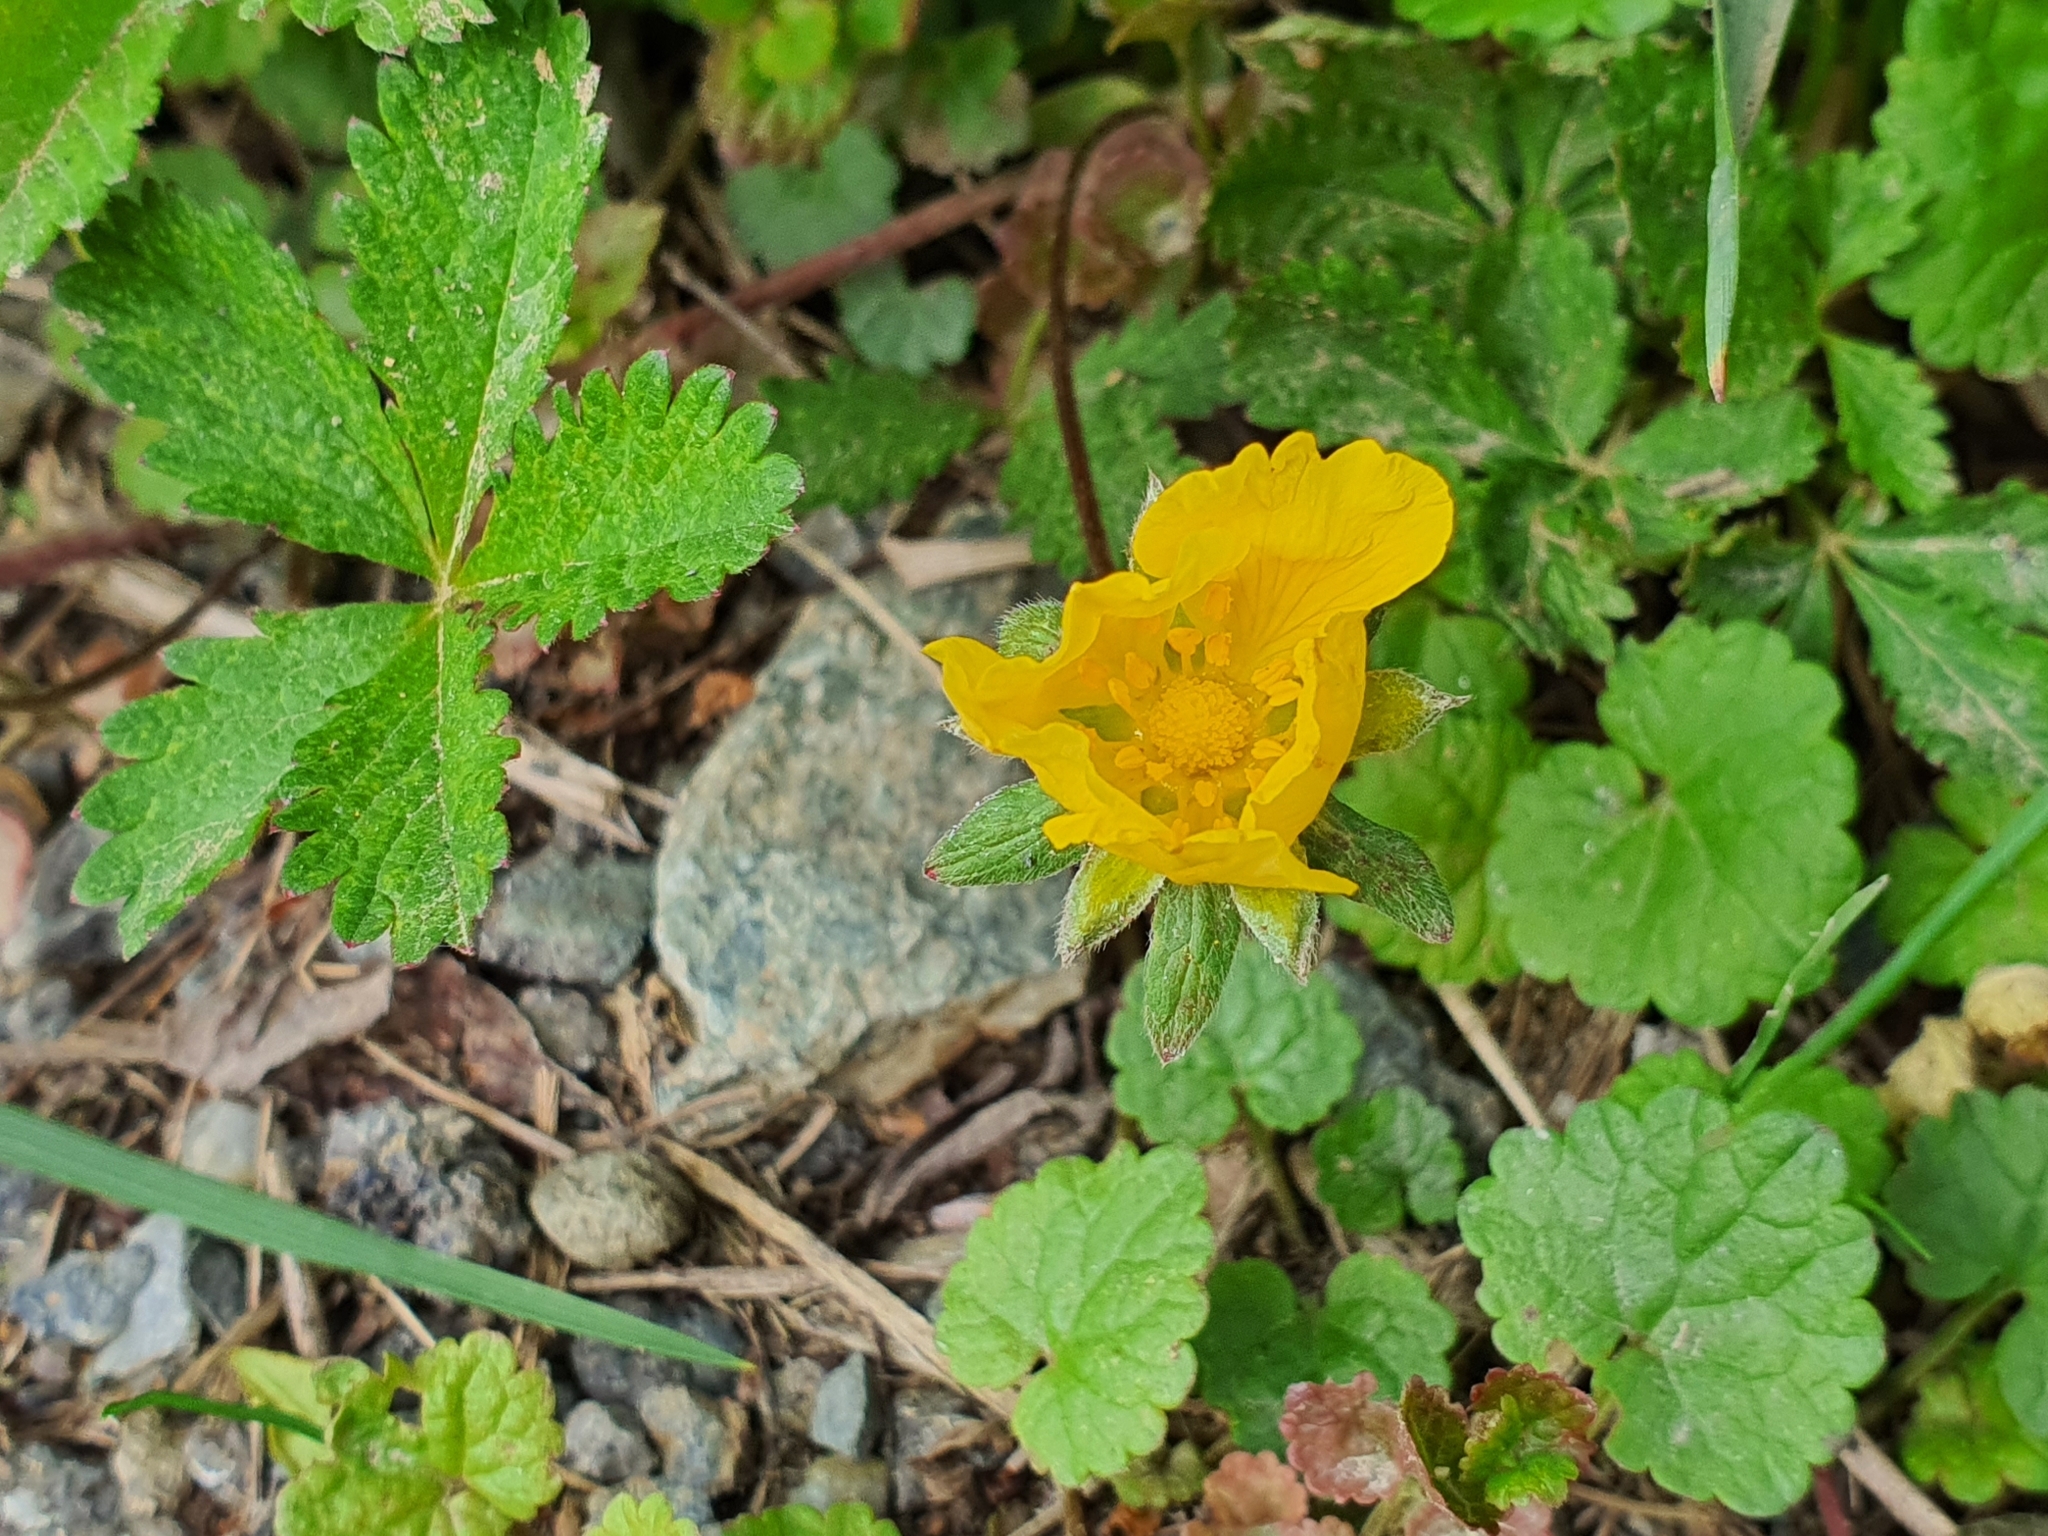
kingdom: Plantae
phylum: Tracheophyta
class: Magnoliopsida
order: Rosales
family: Rosaceae
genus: Potentilla
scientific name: Potentilla reptans
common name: Creeping cinquefoil
